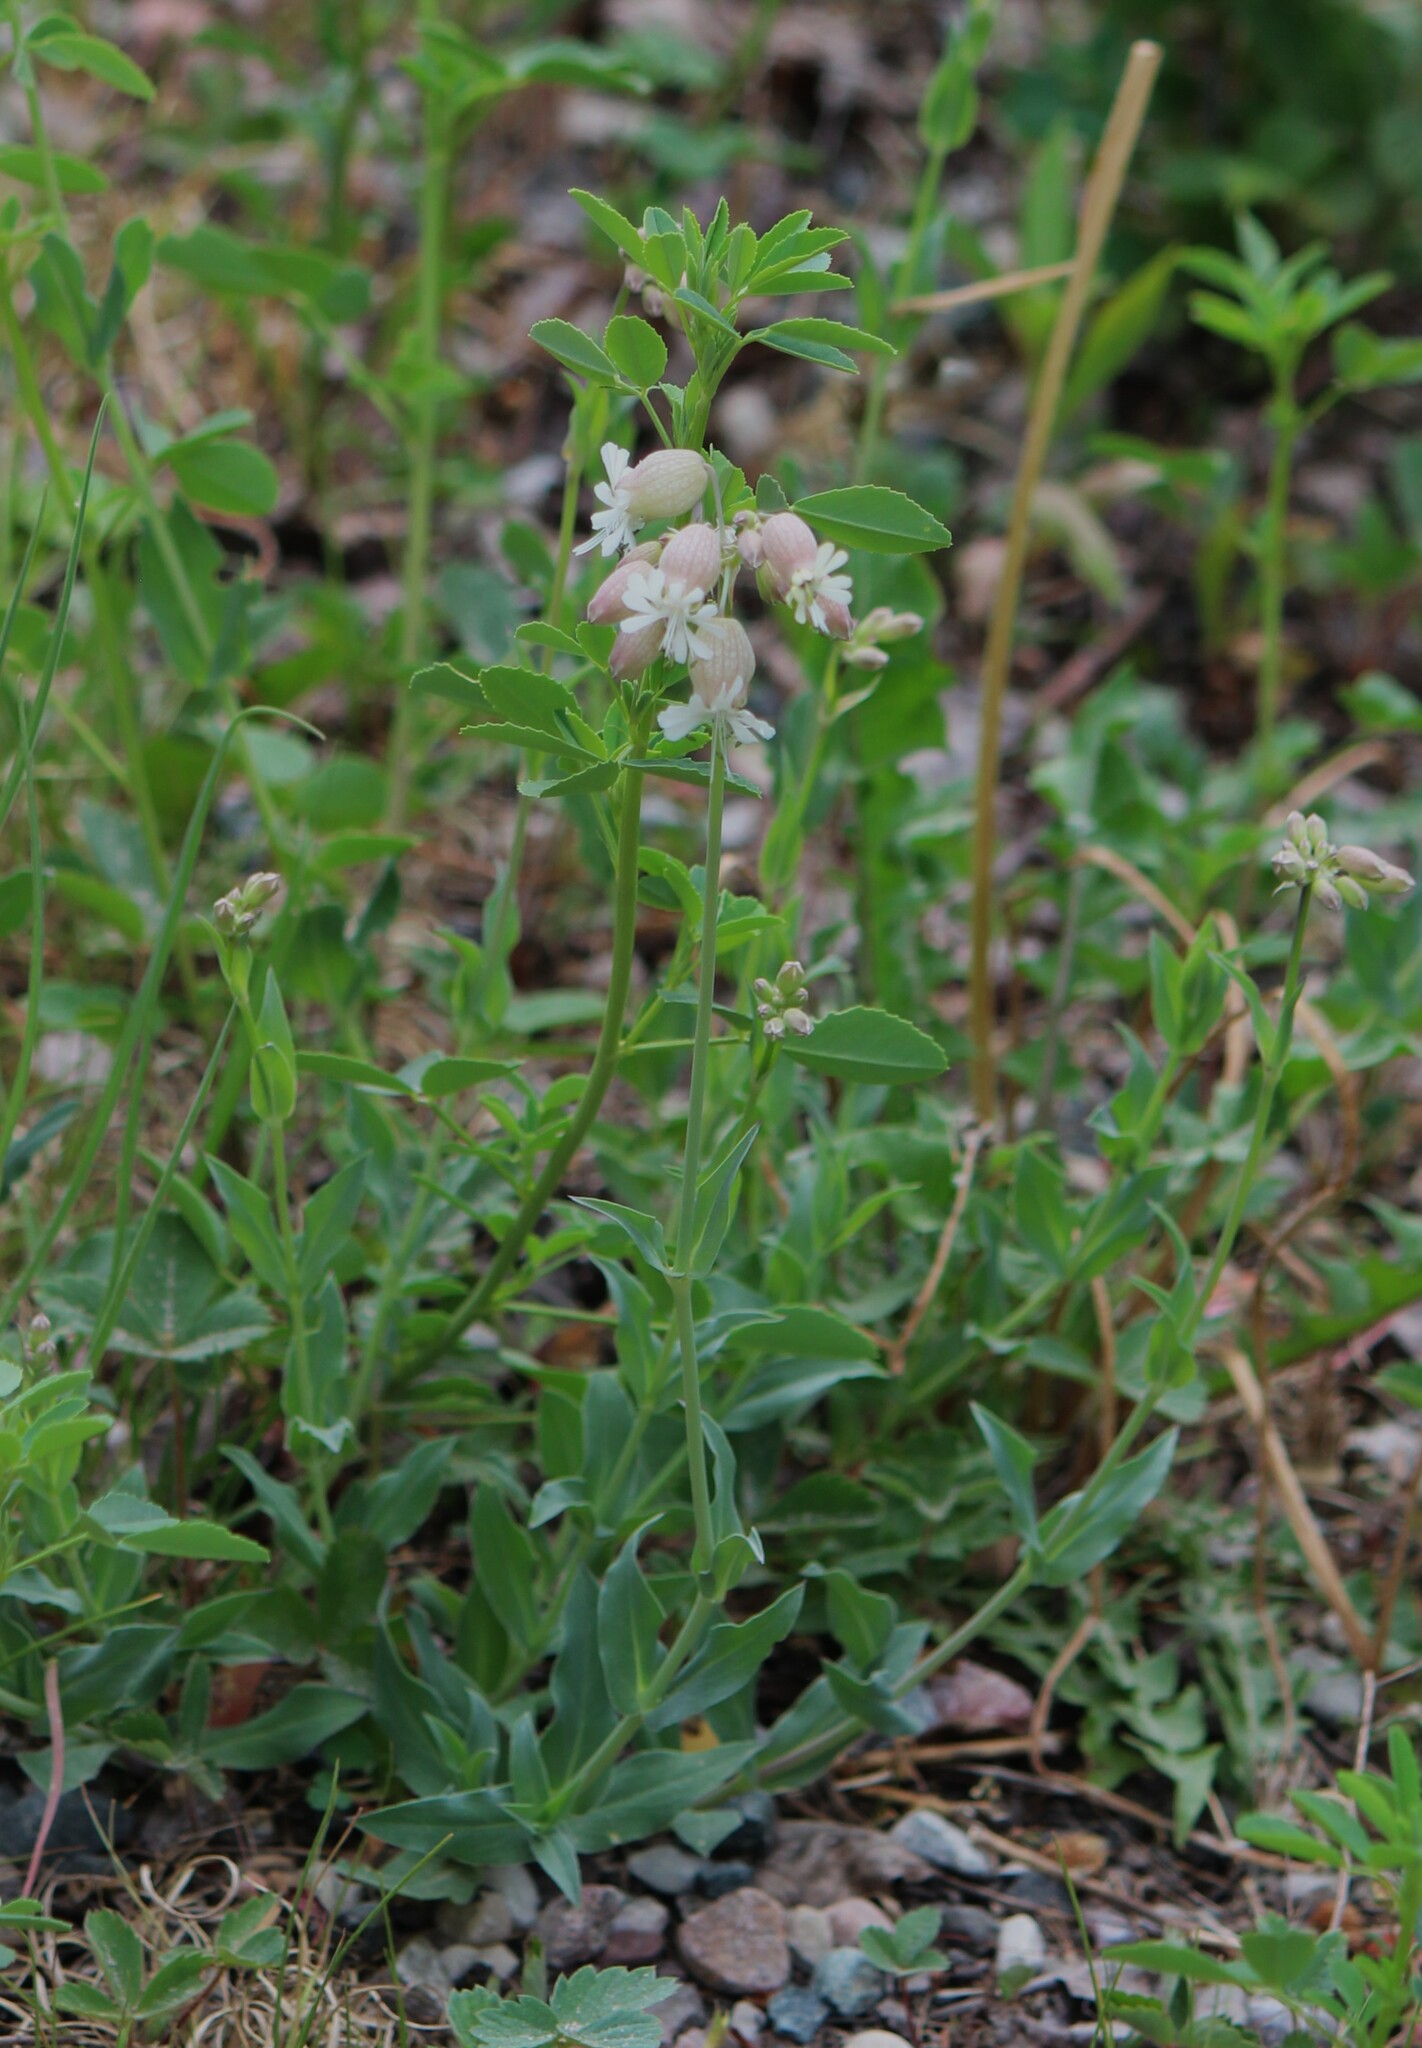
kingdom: Plantae
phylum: Tracheophyta
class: Magnoliopsida
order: Caryophyllales
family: Caryophyllaceae
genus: Silene
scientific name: Silene vulgaris
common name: Bladder campion
